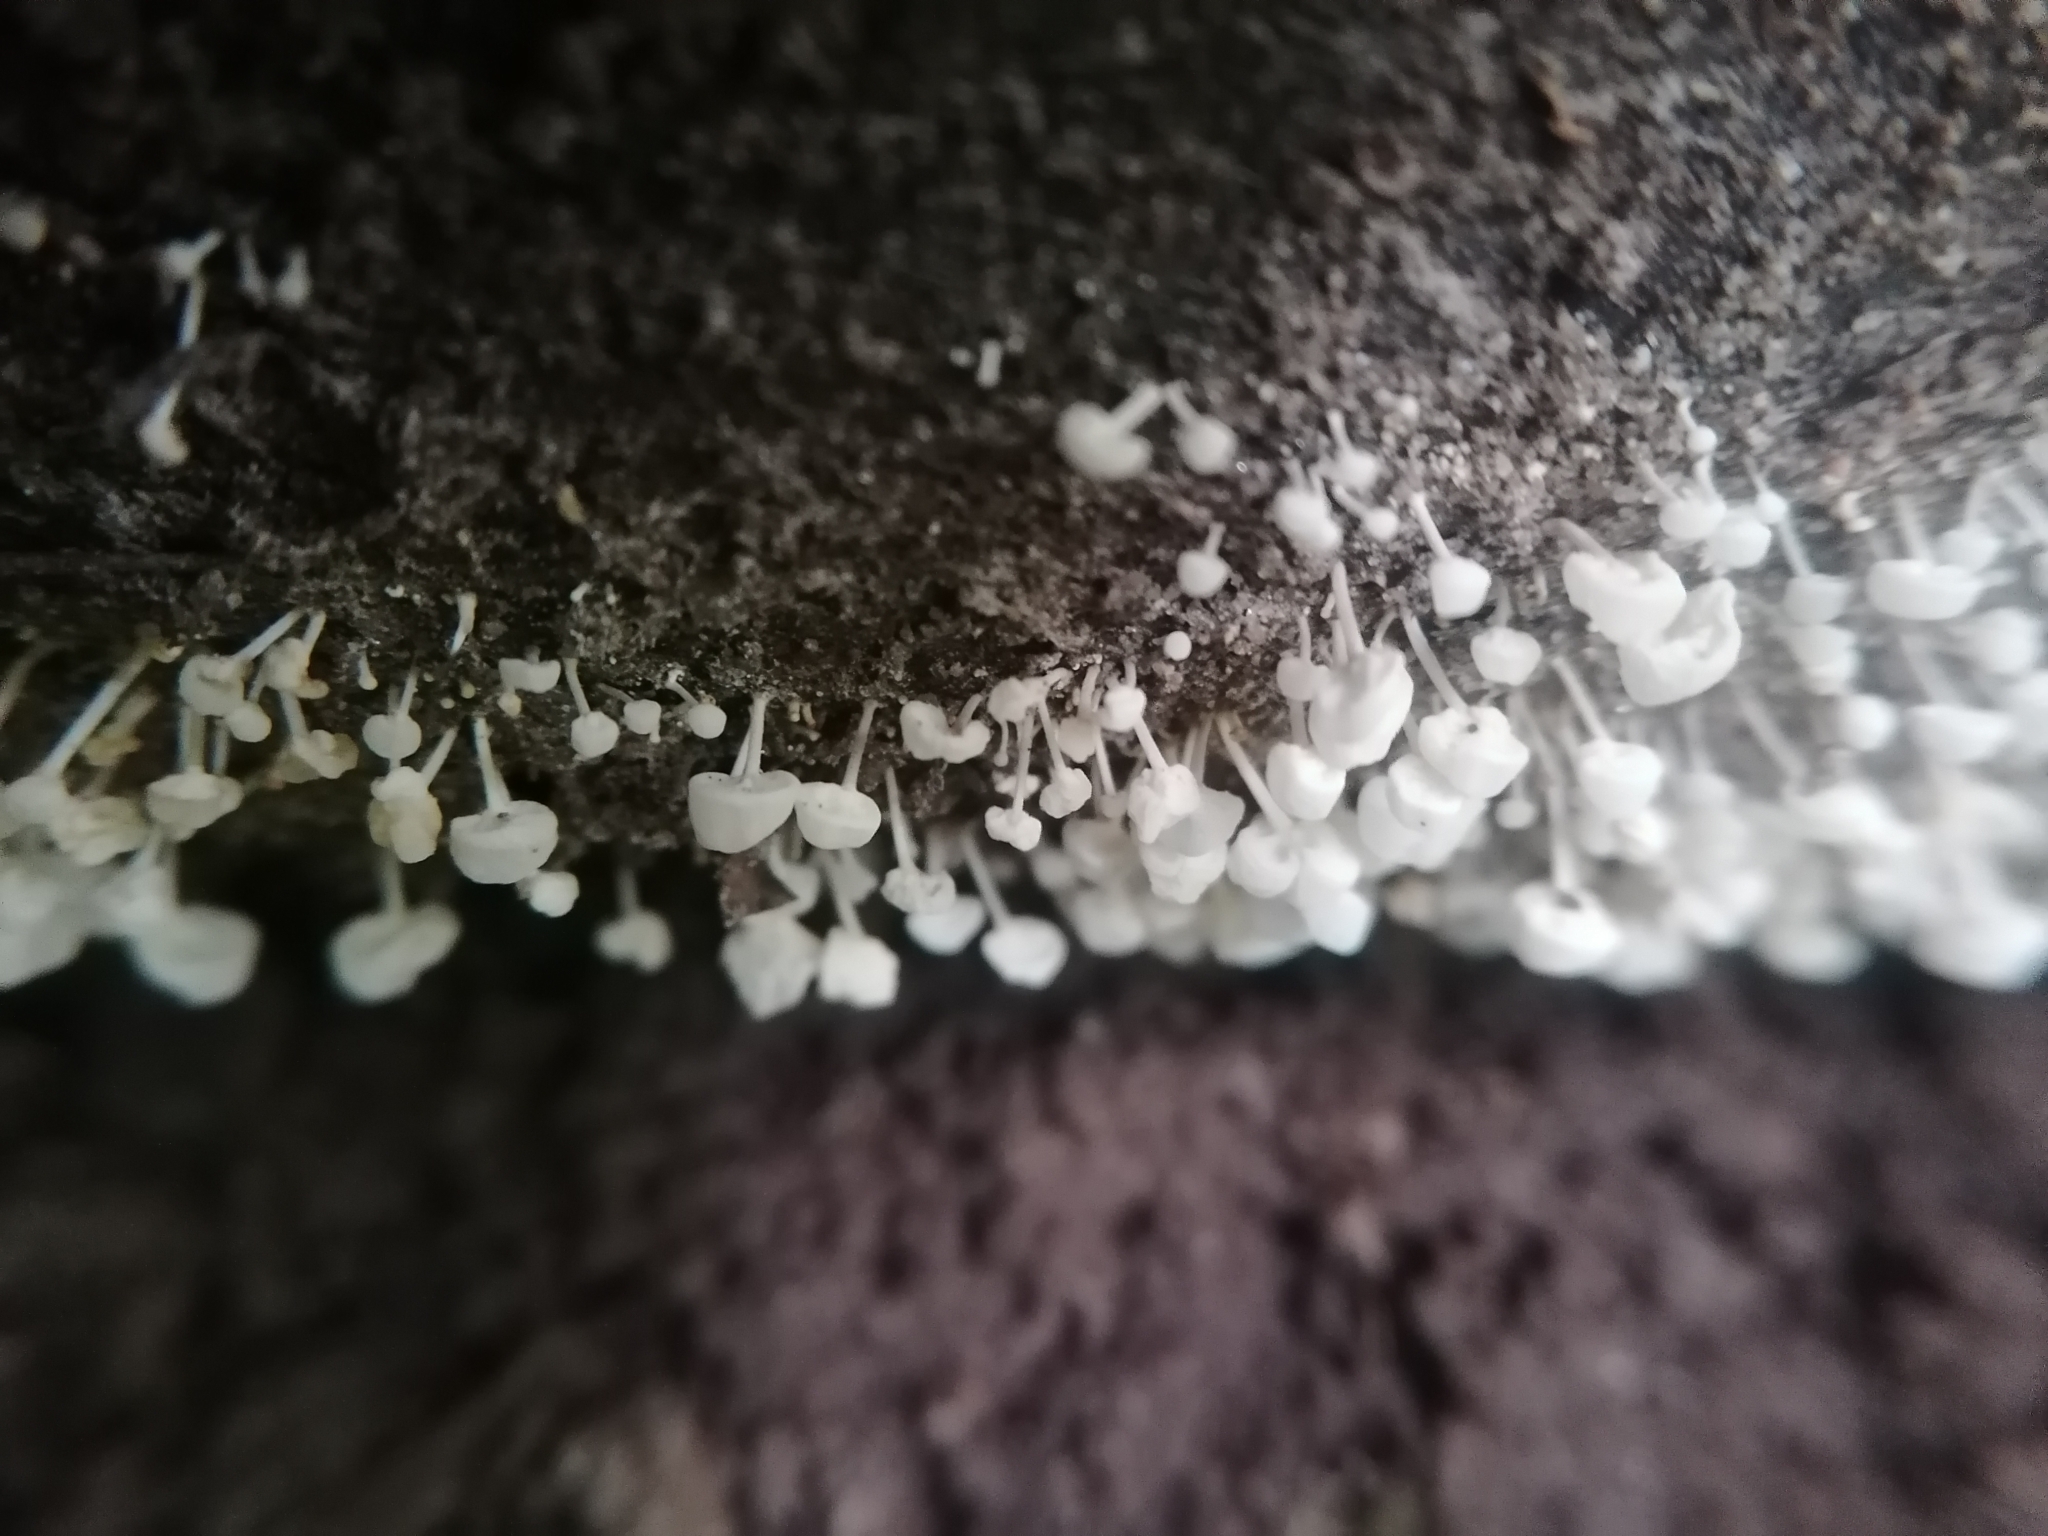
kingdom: Fungi
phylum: Basidiomycota
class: Agaricomycetes
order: Agaricales
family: Physalacriaceae
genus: Physalacria
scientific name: Physalacria inflata
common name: Bladder stalks
